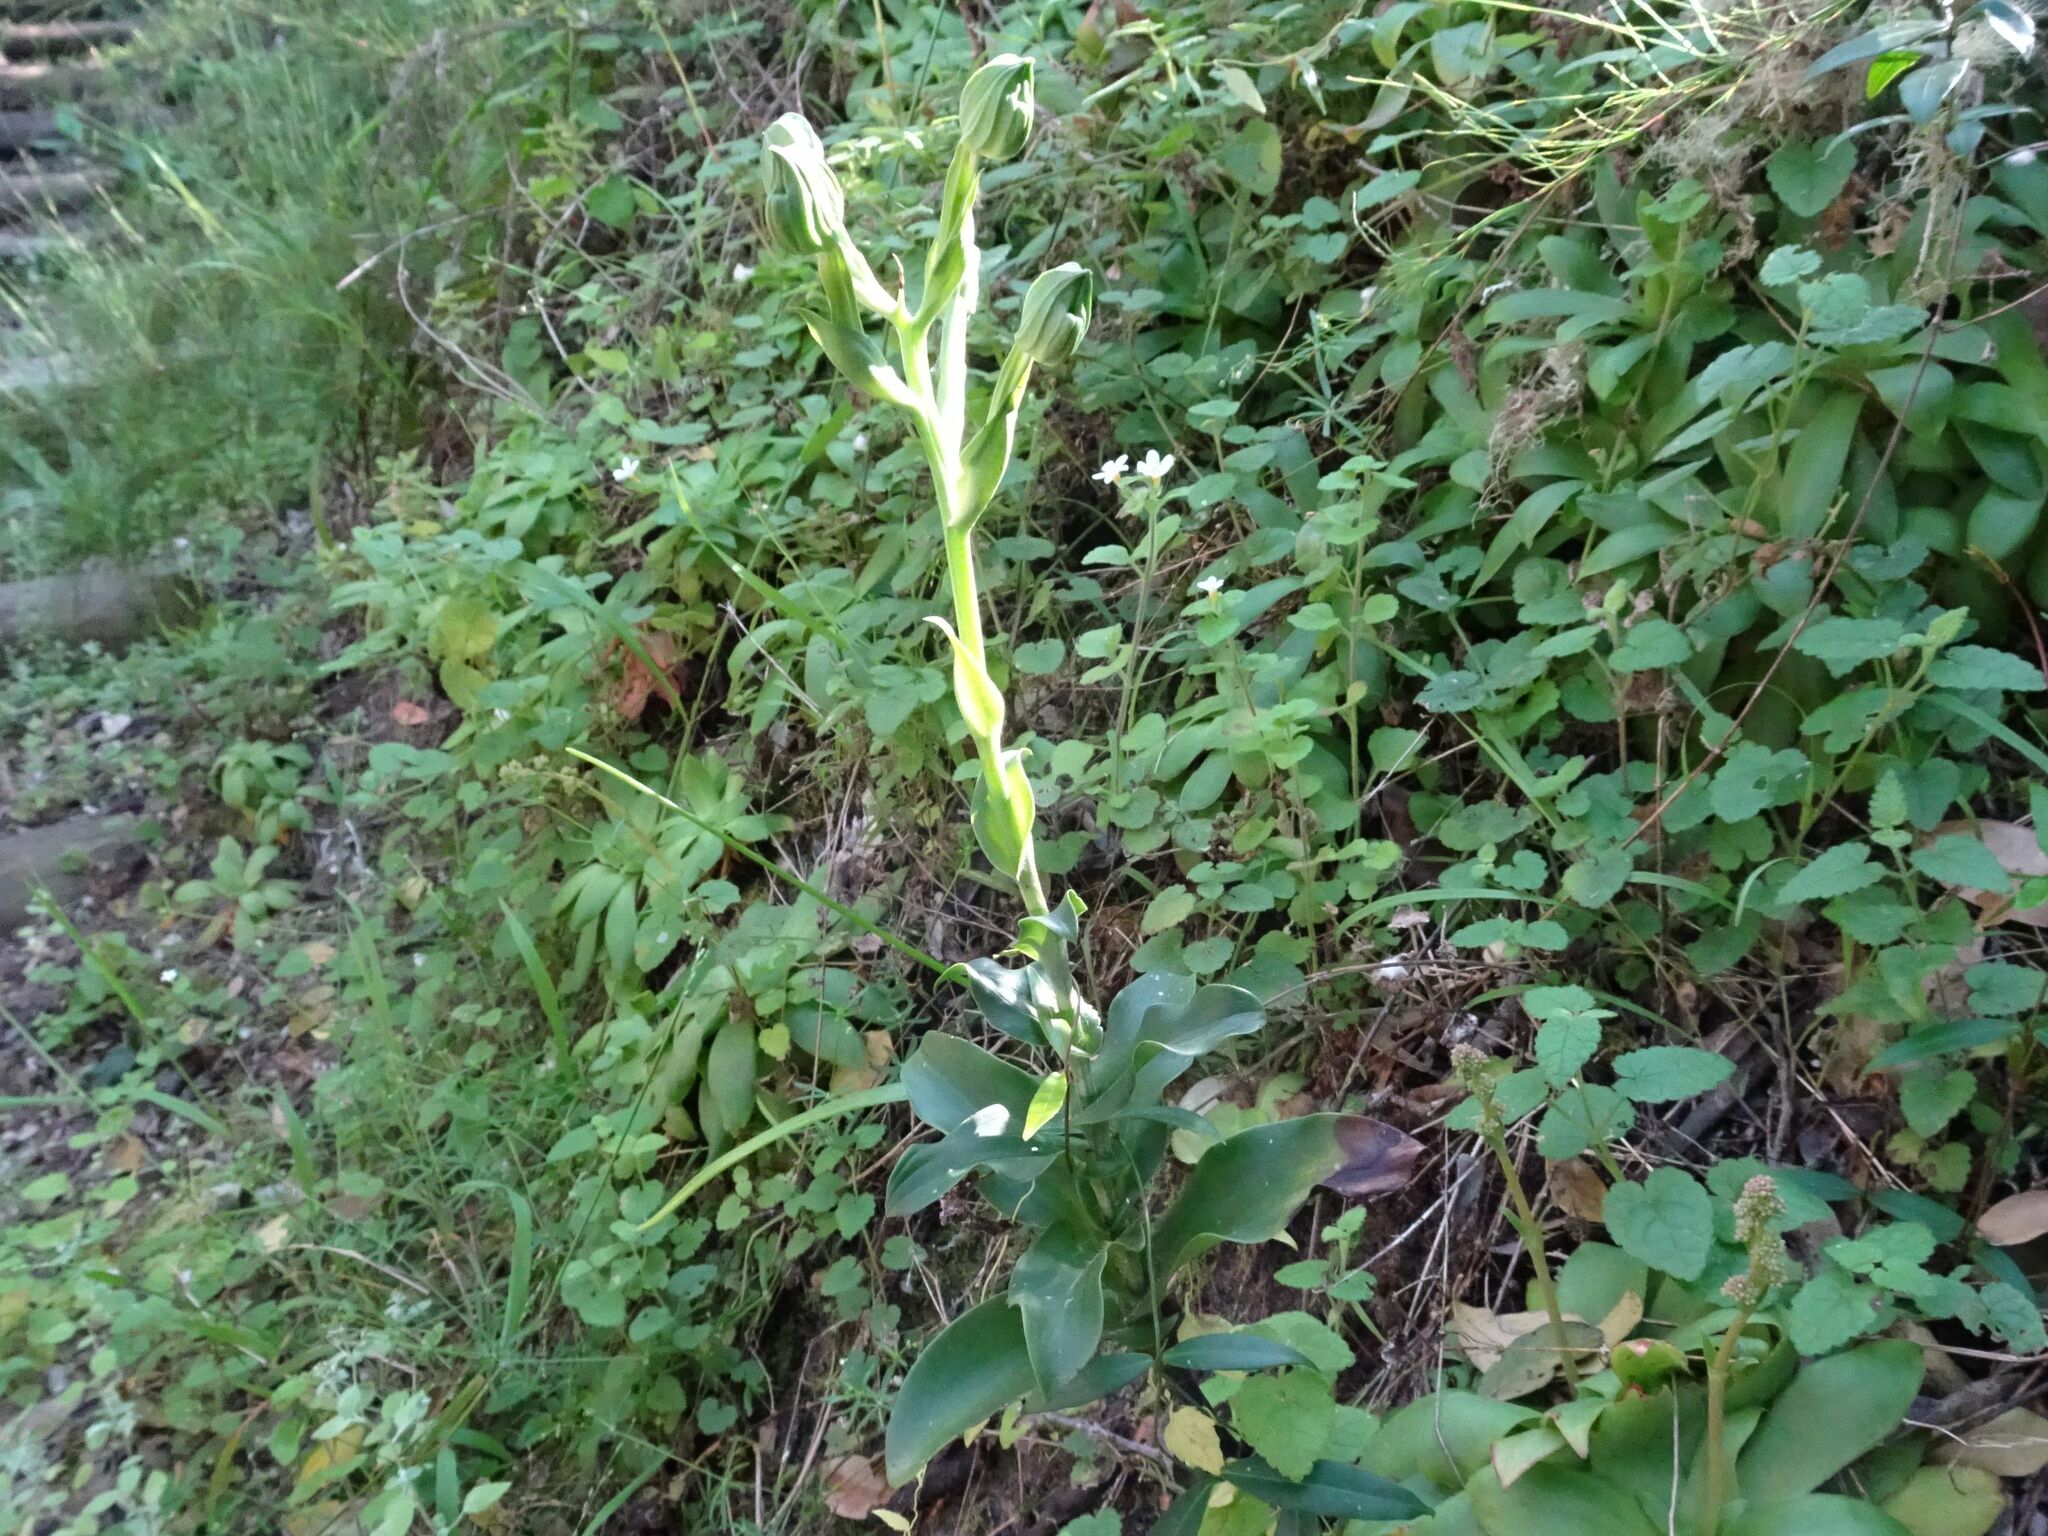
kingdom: Plantae
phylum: Tracheophyta
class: Liliopsida
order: Asparagales
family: Orchidaceae
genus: Bonatea
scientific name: Bonatea speciosa
